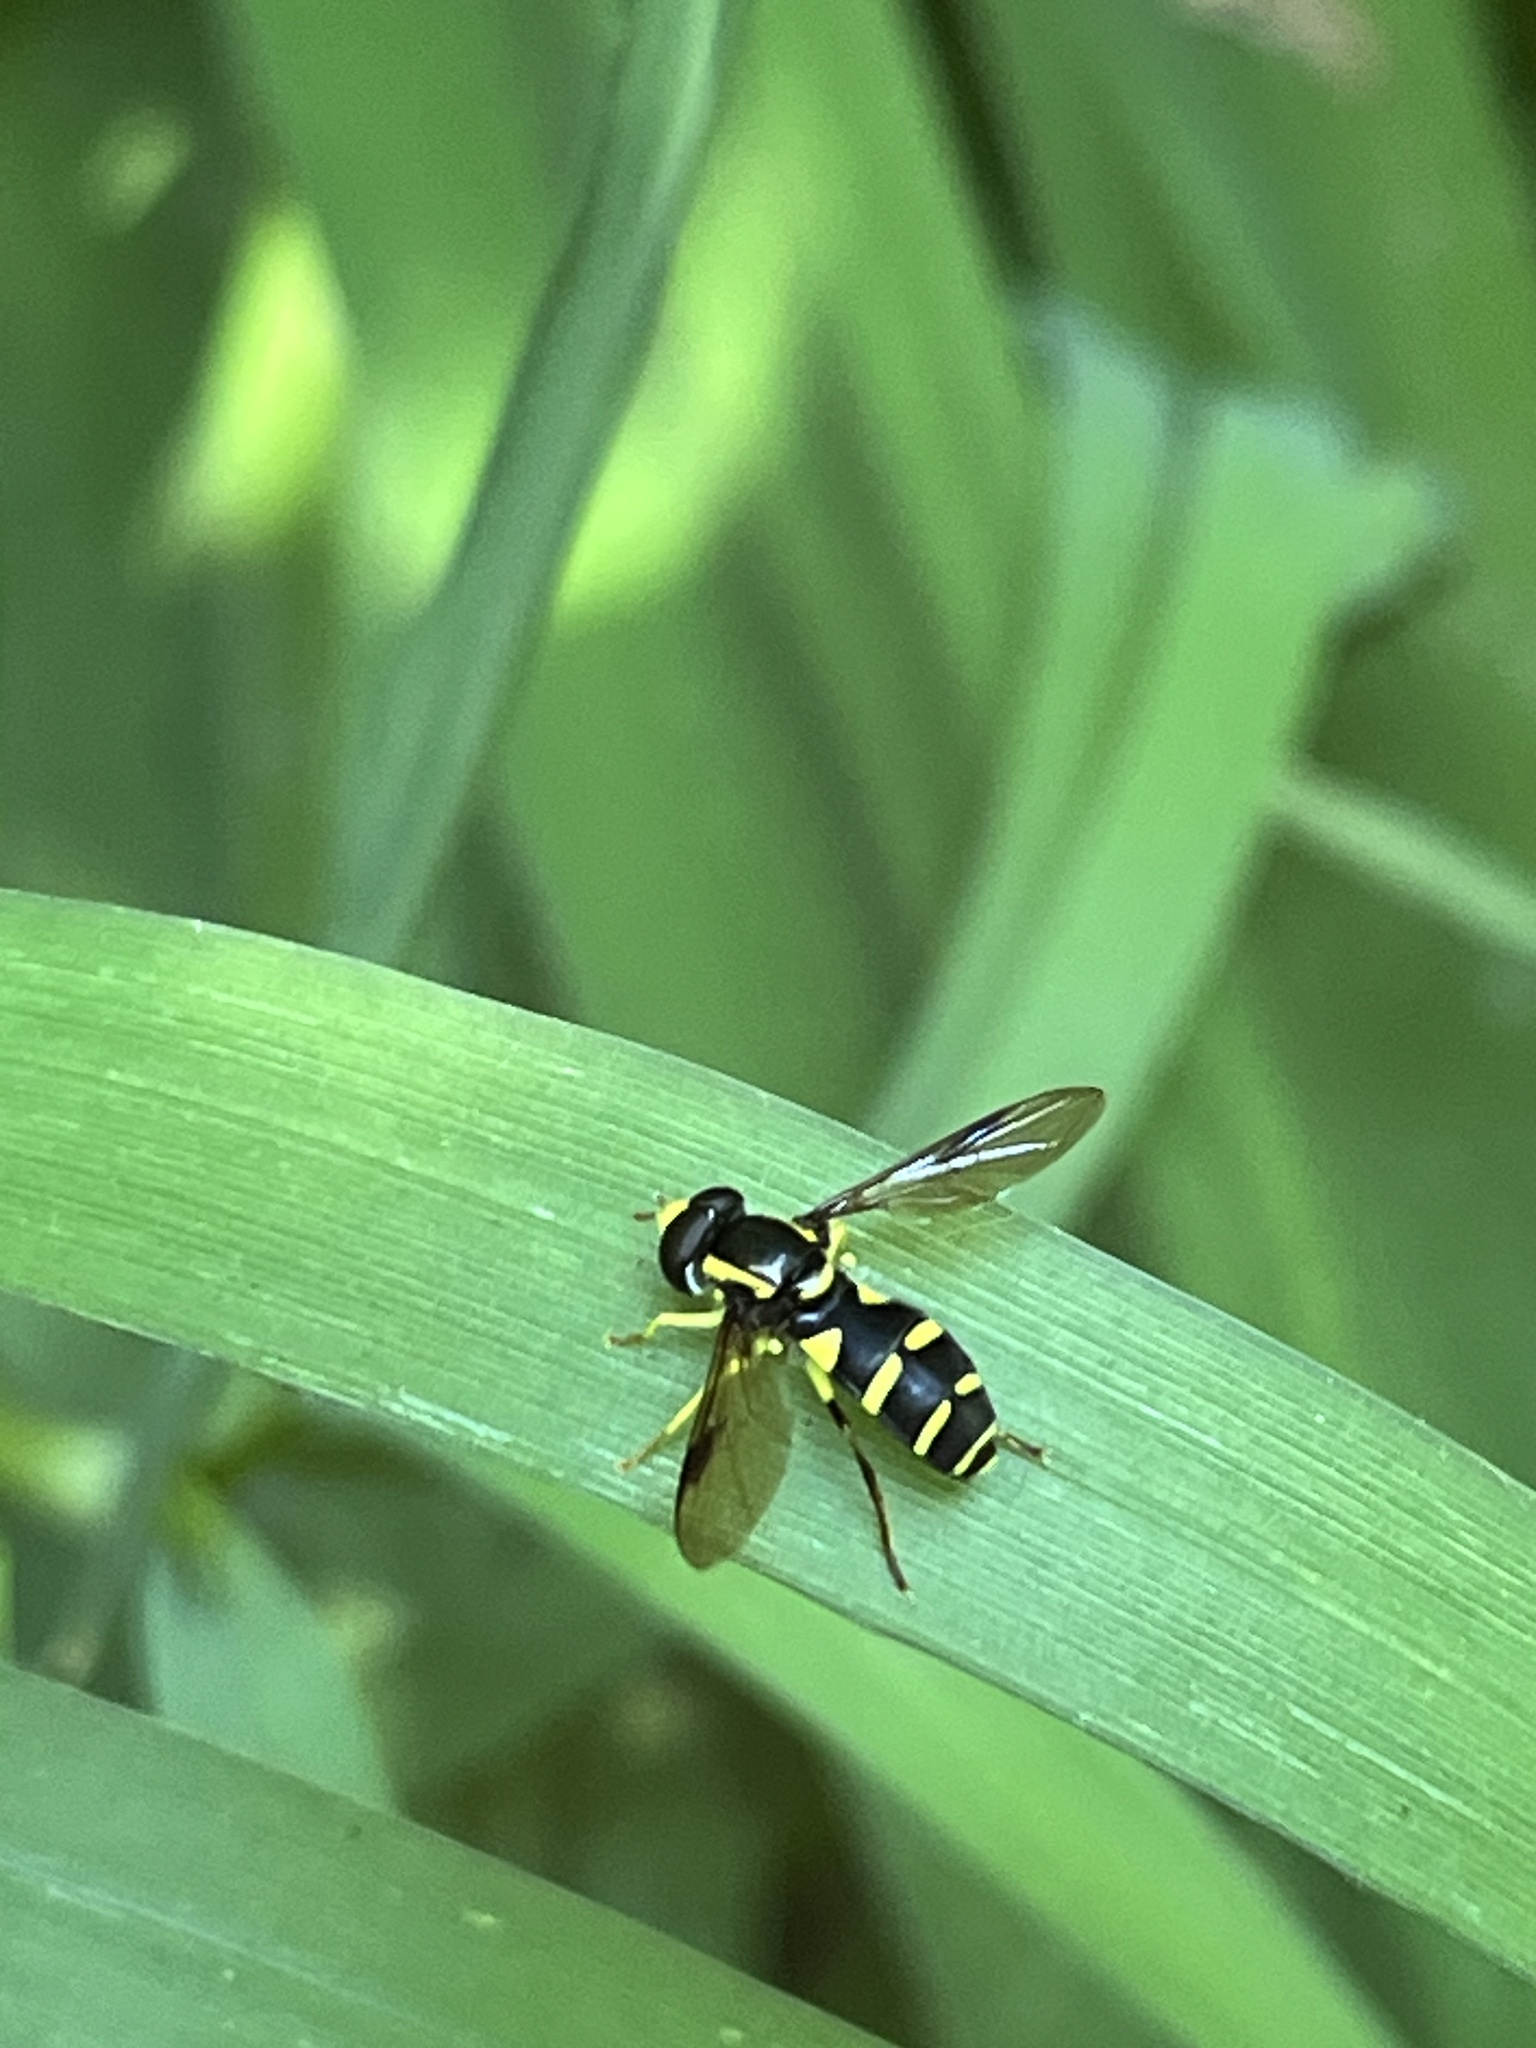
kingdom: Animalia
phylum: Arthropoda
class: Insecta
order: Diptera
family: Syrphidae
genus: Philhelius
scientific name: Philhelius pedissequum
